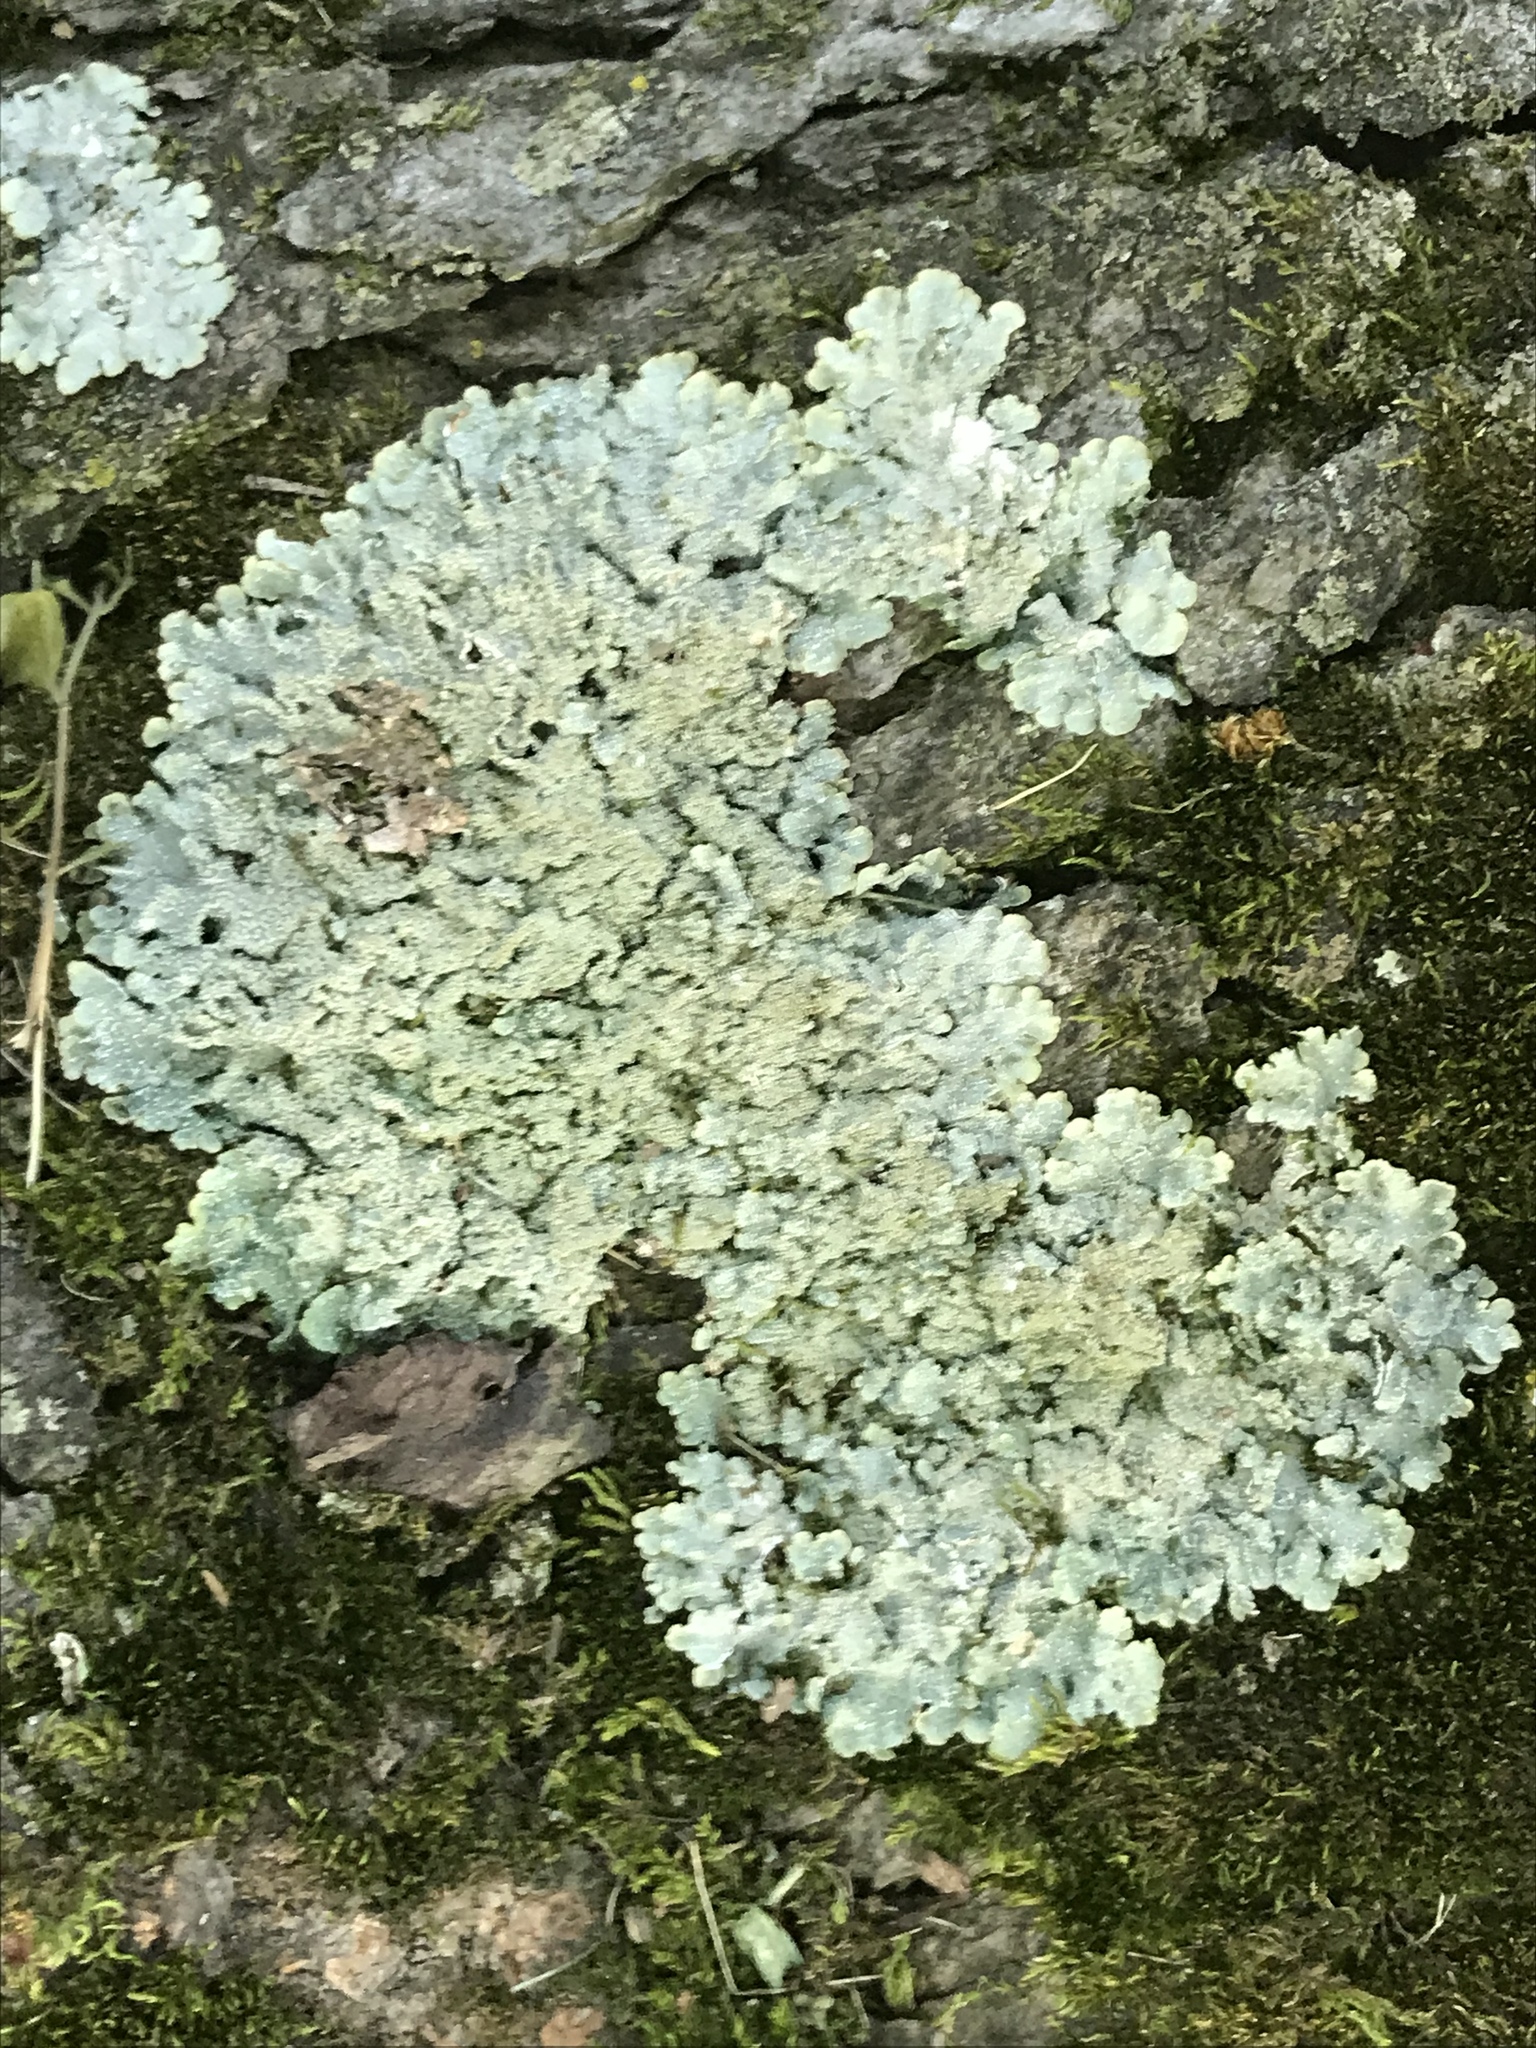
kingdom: Fungi
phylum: Ascomycota
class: Lecanoromycetes
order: Lecanorales
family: Parmeliaceae
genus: Punctelia
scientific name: Punctelia missouriensis
